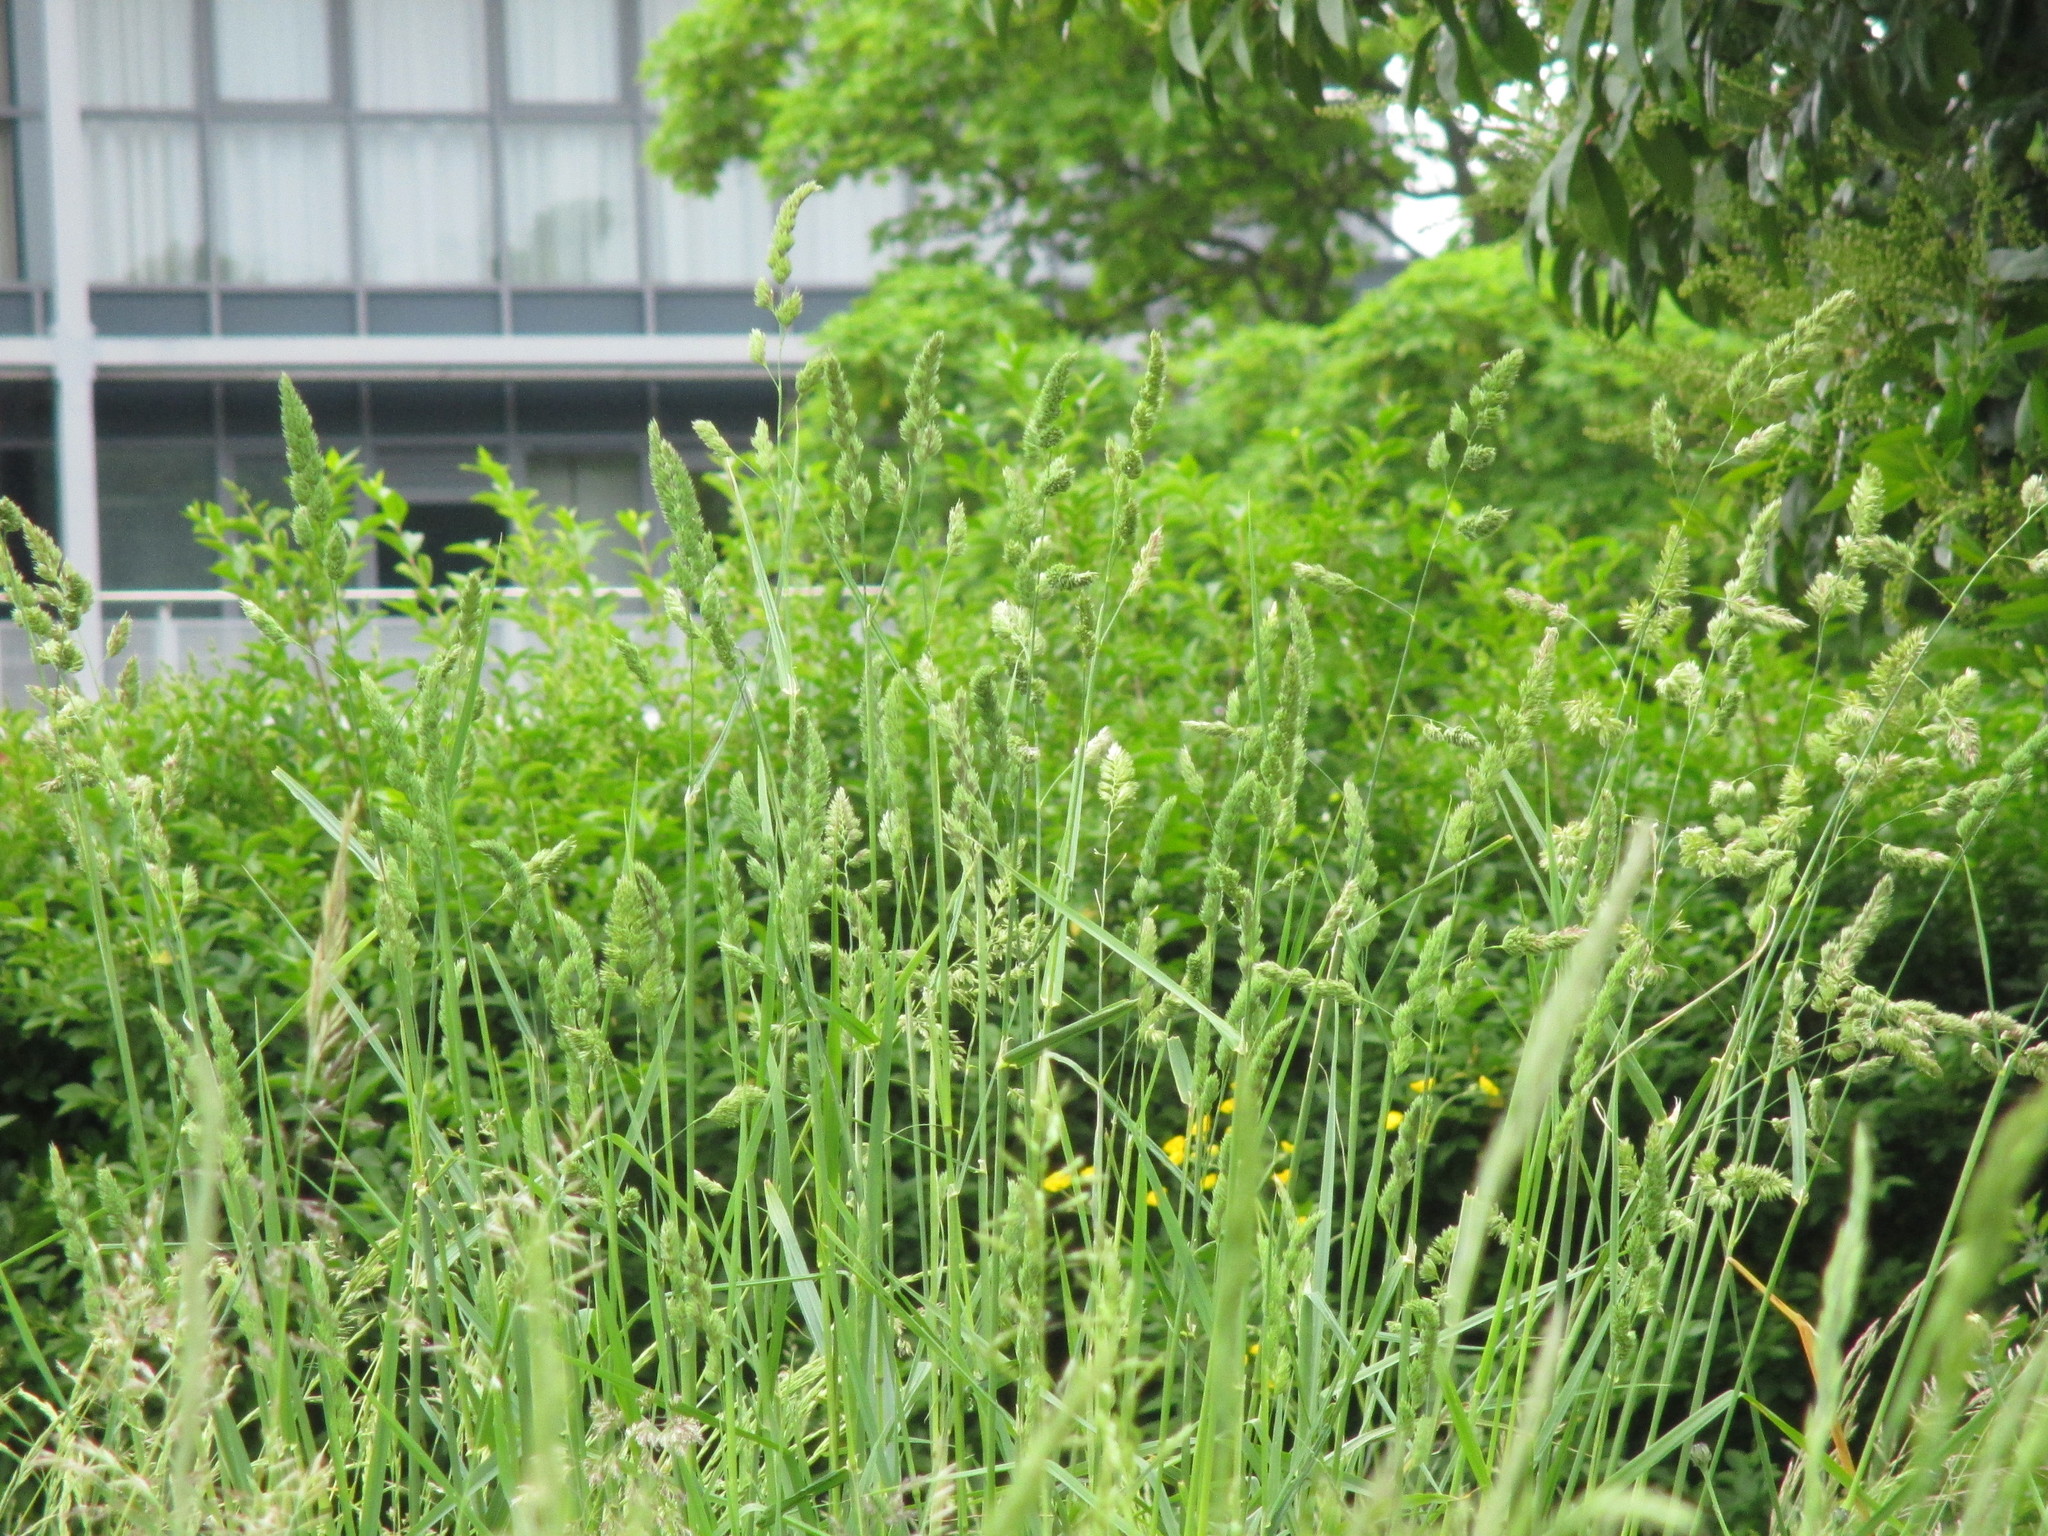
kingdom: Plantae
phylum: Tracheophyta
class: Liliopsida
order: Poales
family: Poaceae
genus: Dactylis
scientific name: Dactylis glomerata
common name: Orchardgrass
